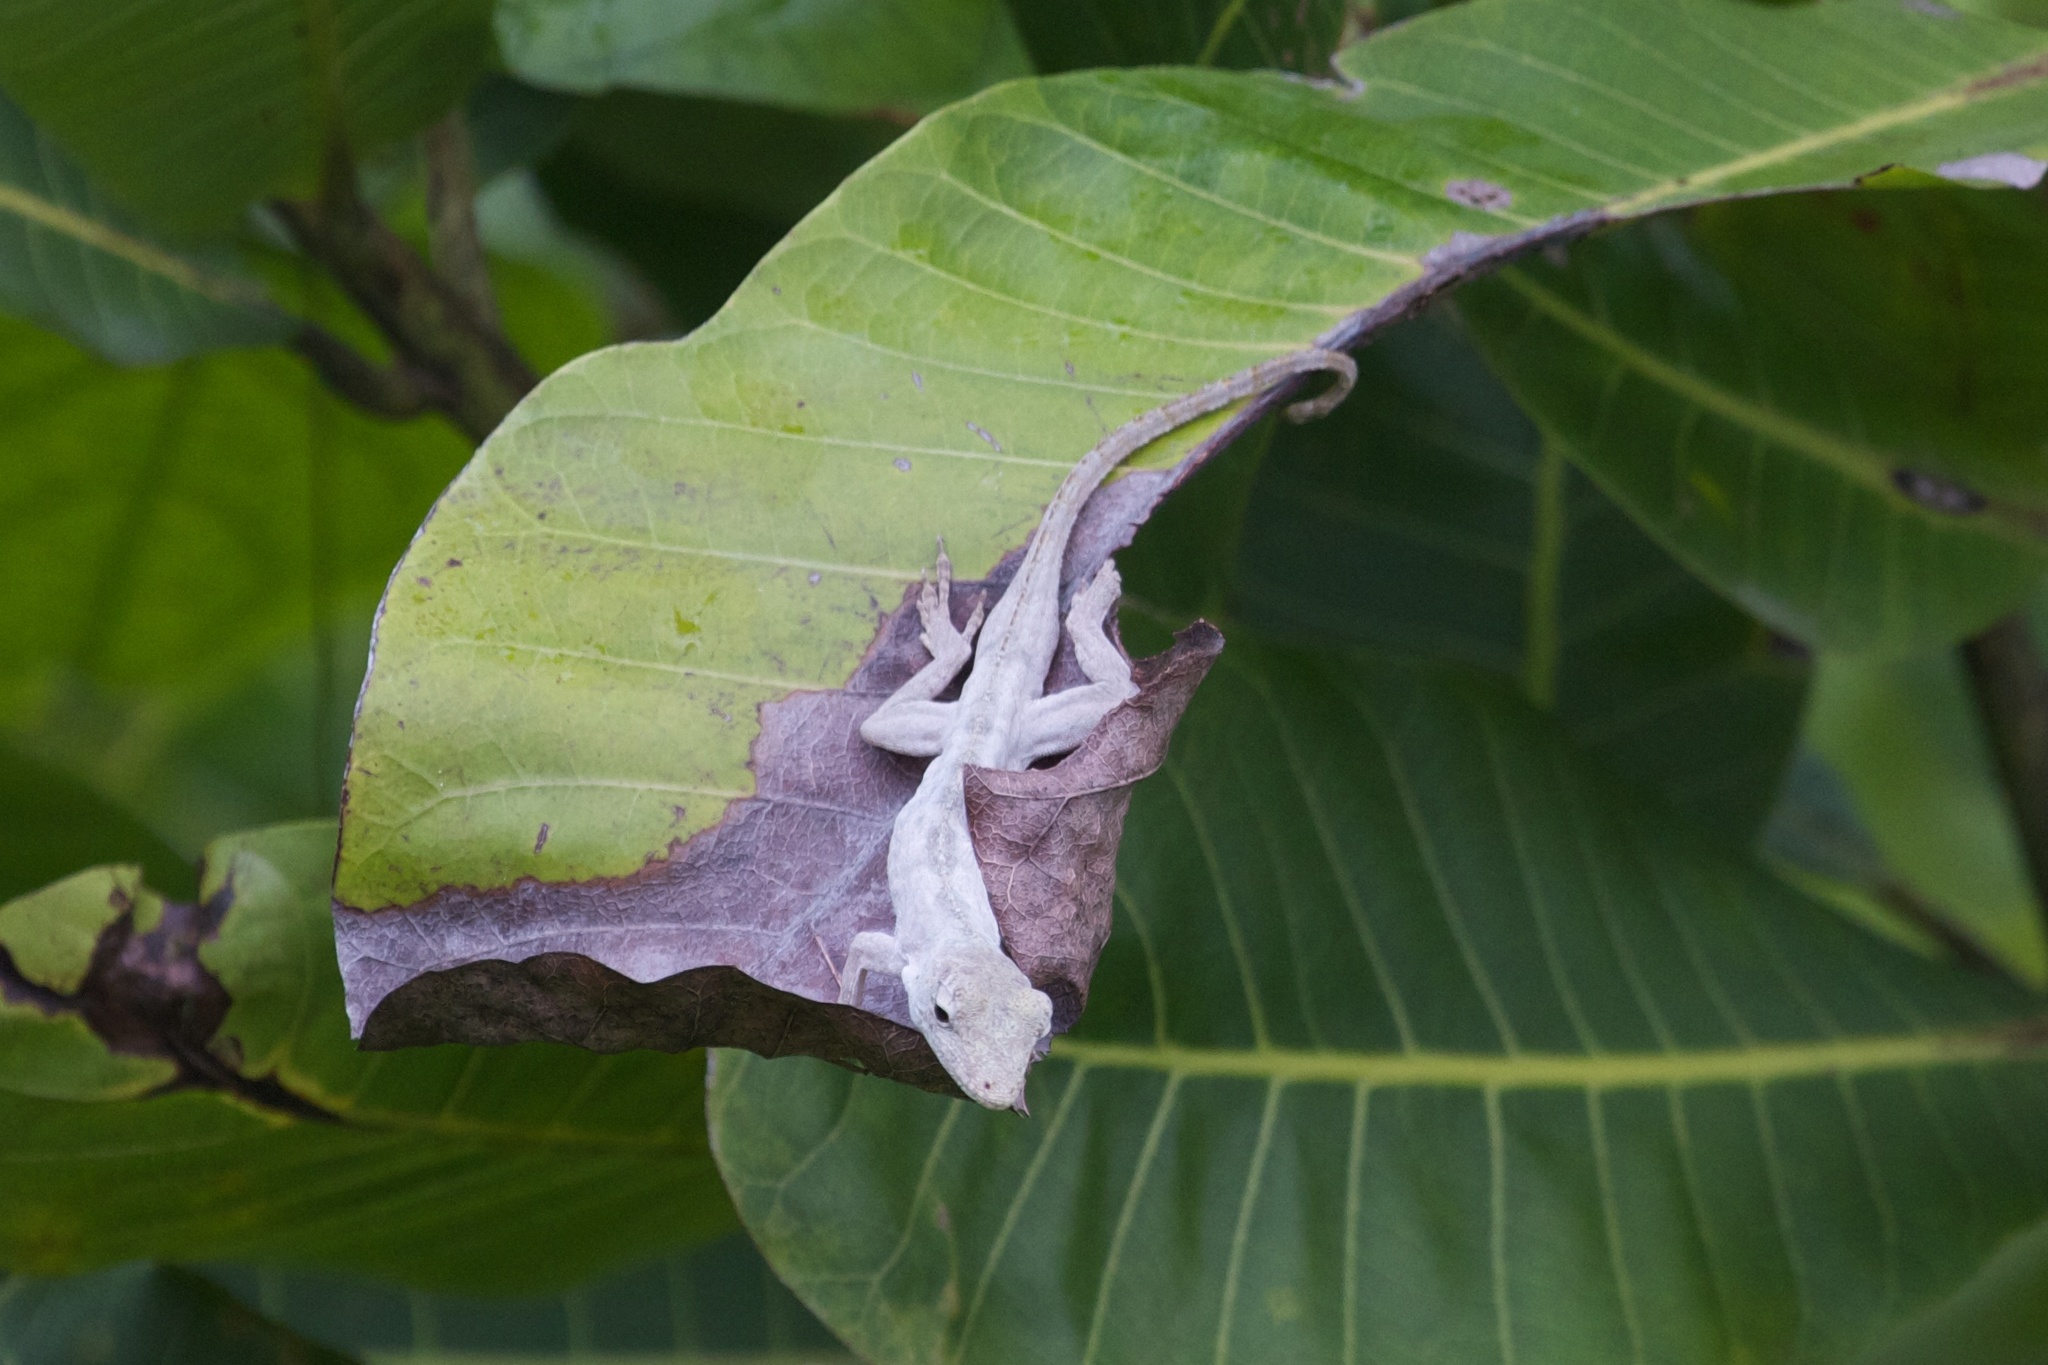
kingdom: Animalia
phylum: Chordata
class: Squamata
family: Dactyloidae
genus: Anolis
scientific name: Anolis pentaprion
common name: Lichen anole
